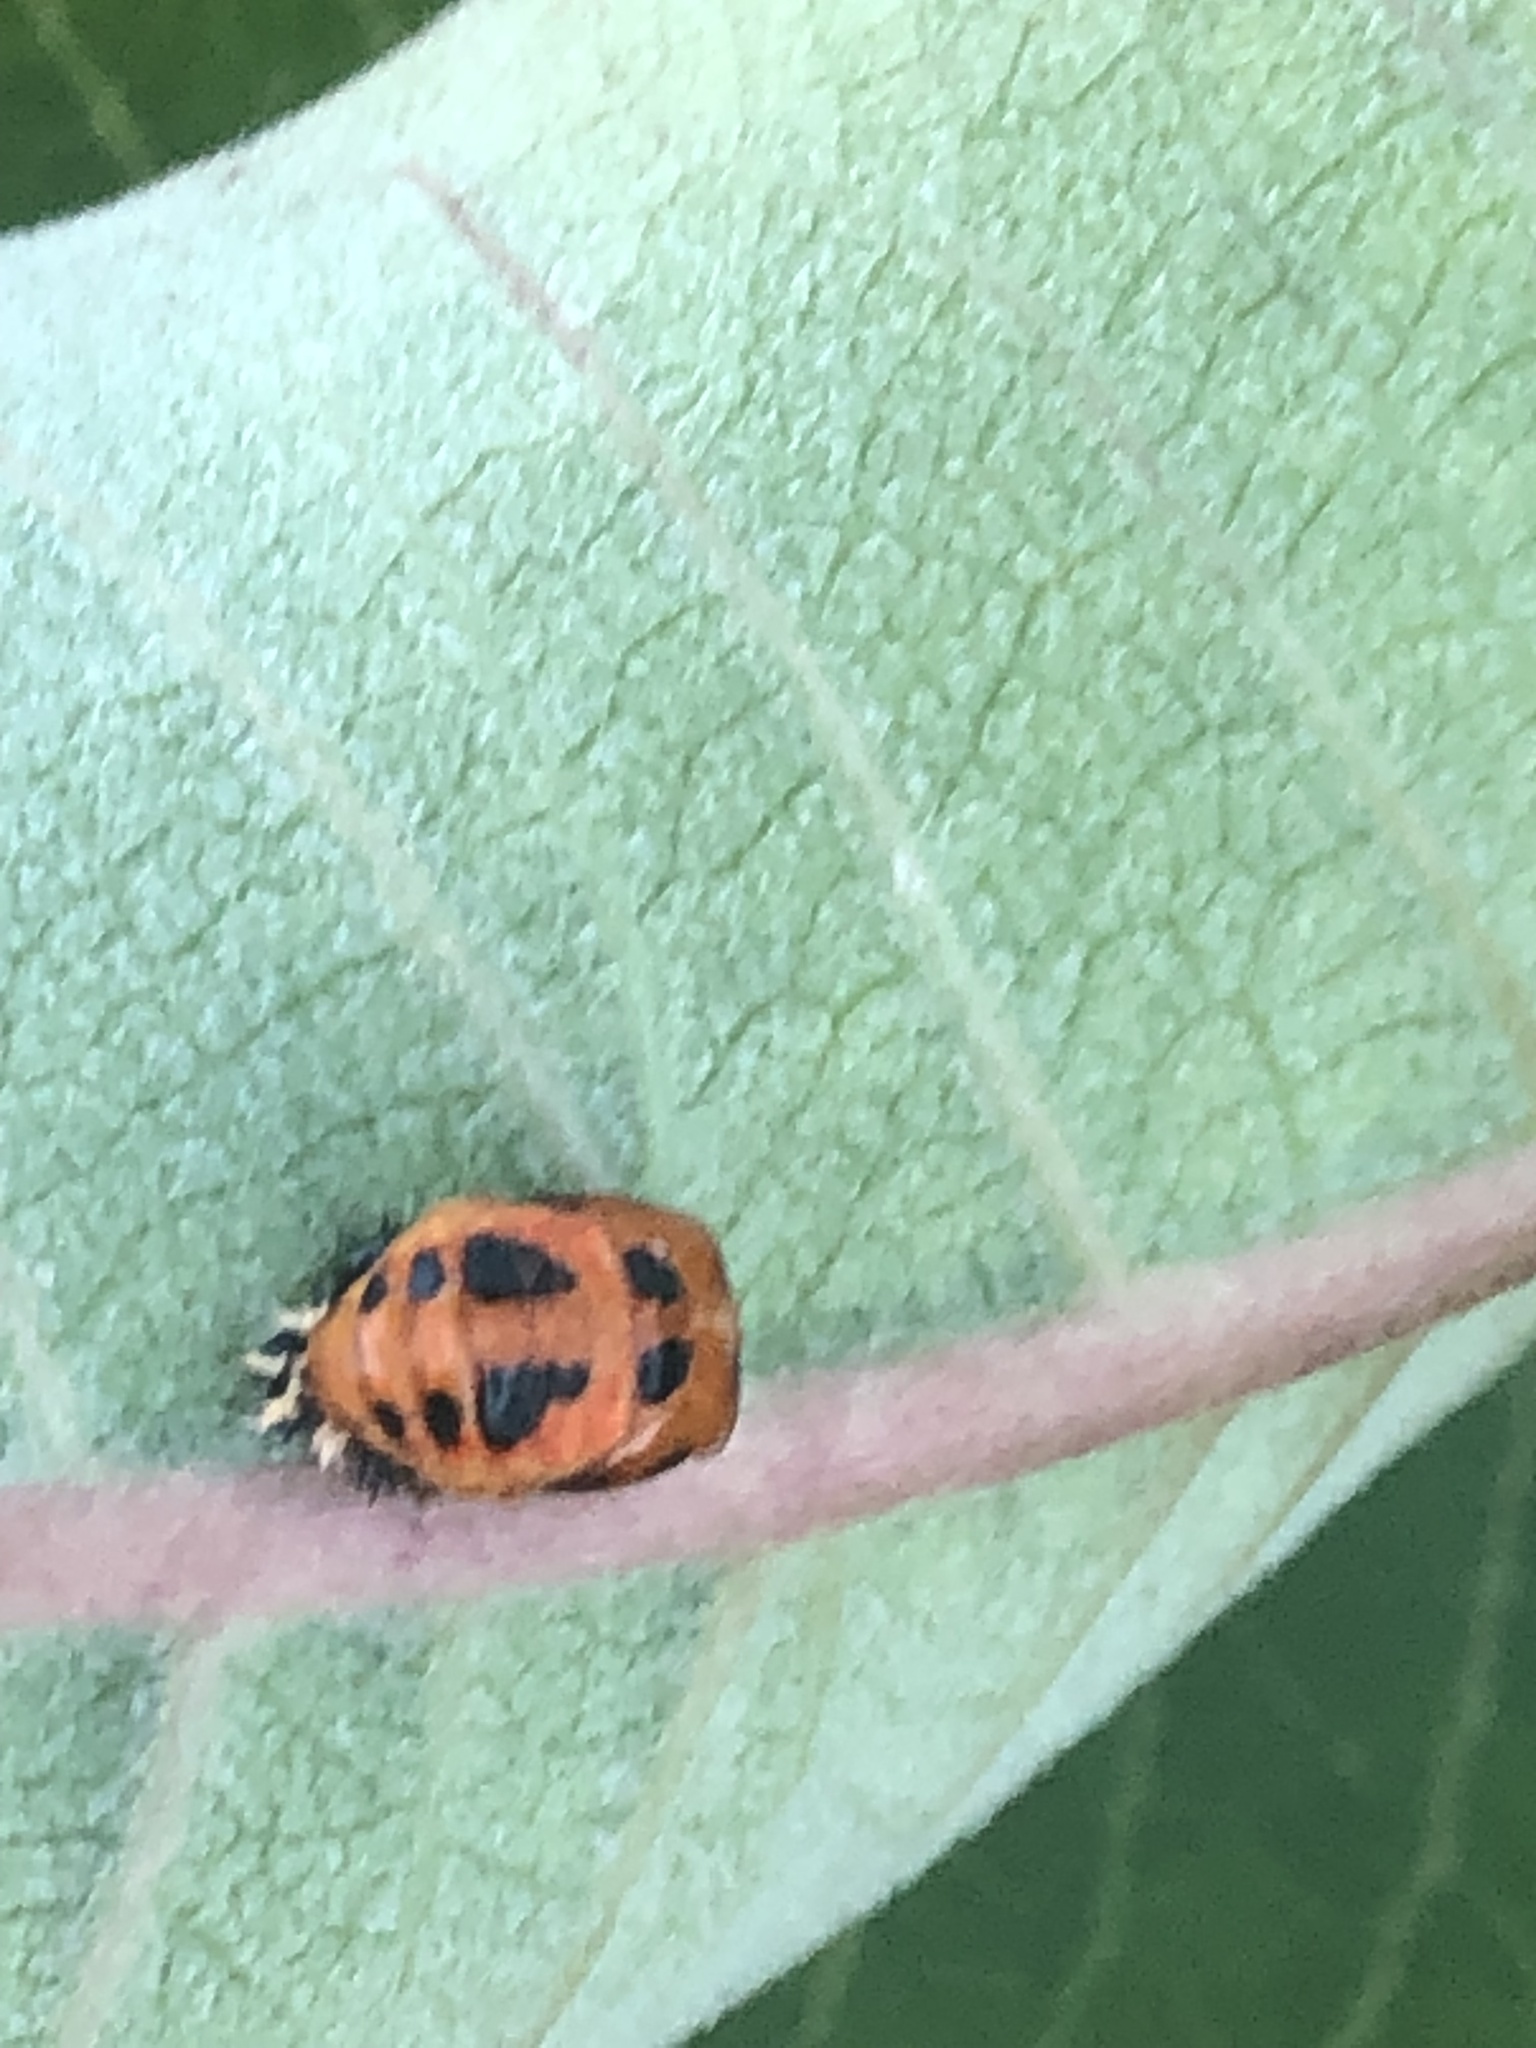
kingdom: Animalia
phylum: Arthropoda
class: Insecta
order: Coleoptera
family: Coccinellidae
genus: Harmonia
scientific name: Harmonia axyridis
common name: Harlequin ladybird
